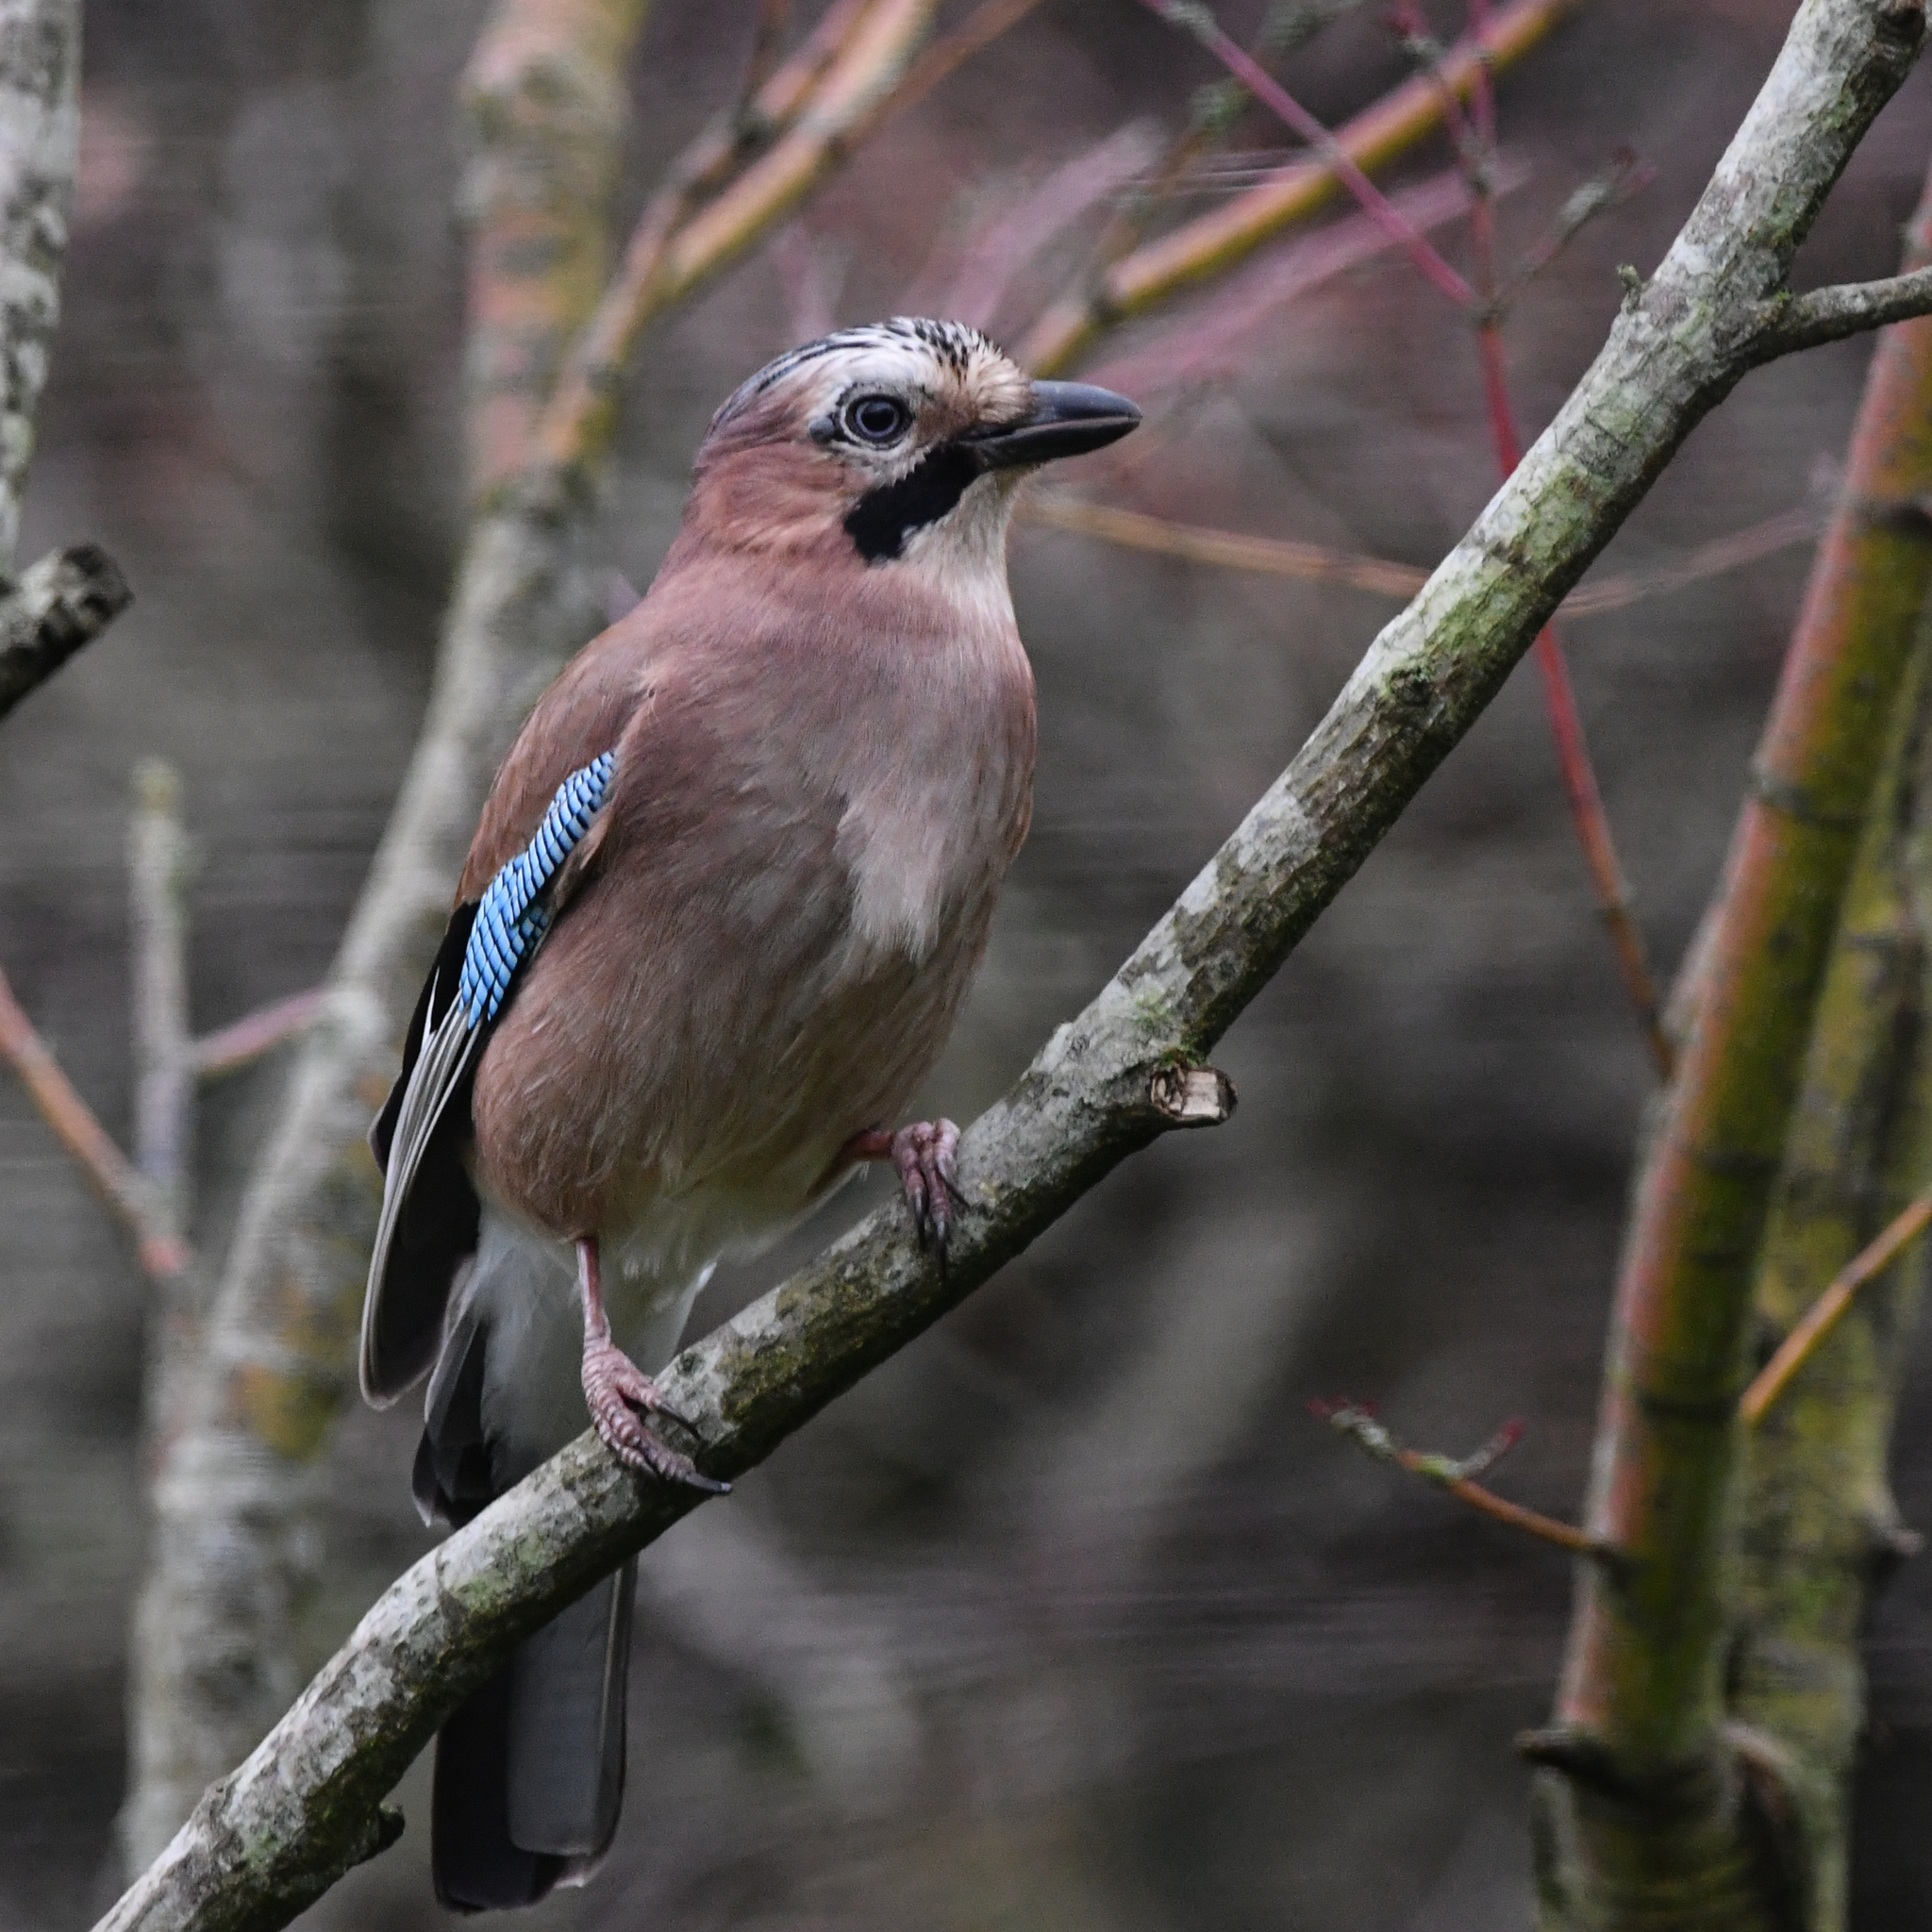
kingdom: Animalia
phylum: Chordata
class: Aves
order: Passeriformes
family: Corvidae
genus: Garrulus
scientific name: Garrulus glandarius
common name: Eurasian jay
